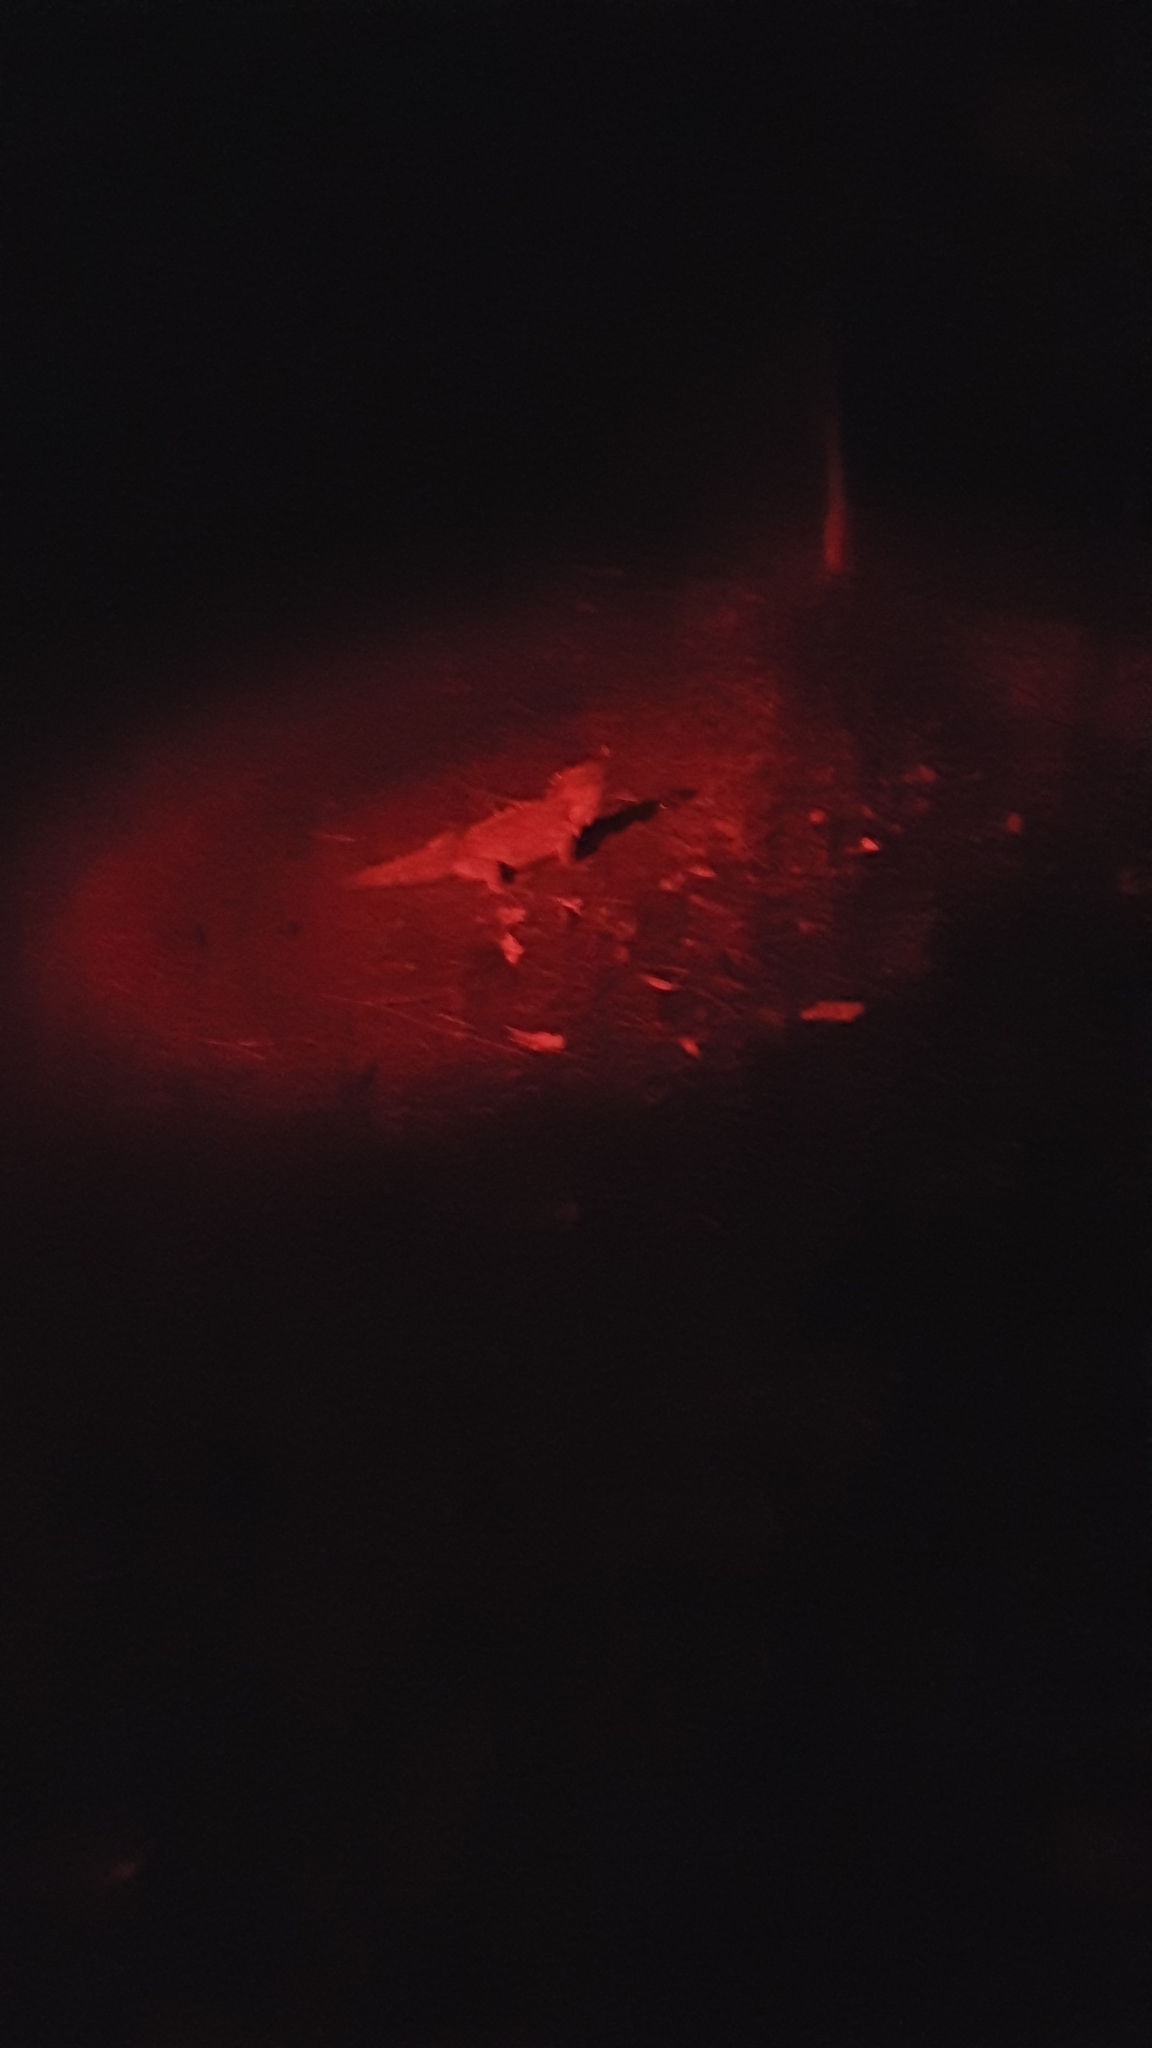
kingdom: Animalia
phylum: Chordata
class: Sphenodontia
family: Sphenodontidae
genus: Sphenodon
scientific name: Sphenodon punctatus
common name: Tuatara
